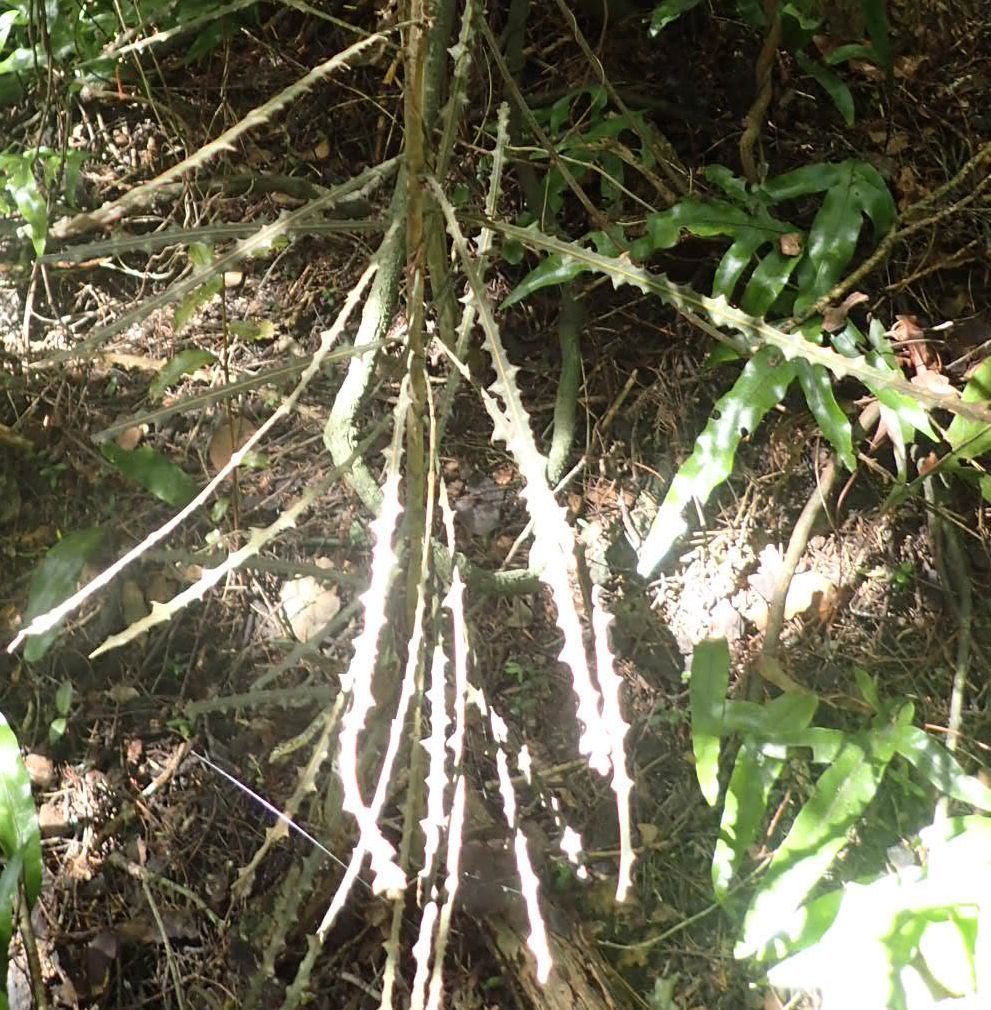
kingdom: Plantae
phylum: Tracheophyta
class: Magnoliopsida
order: Apiales
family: Araliaceae
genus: Pseudopanax
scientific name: Pseudopanax ferox
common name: Fierce lancewood
